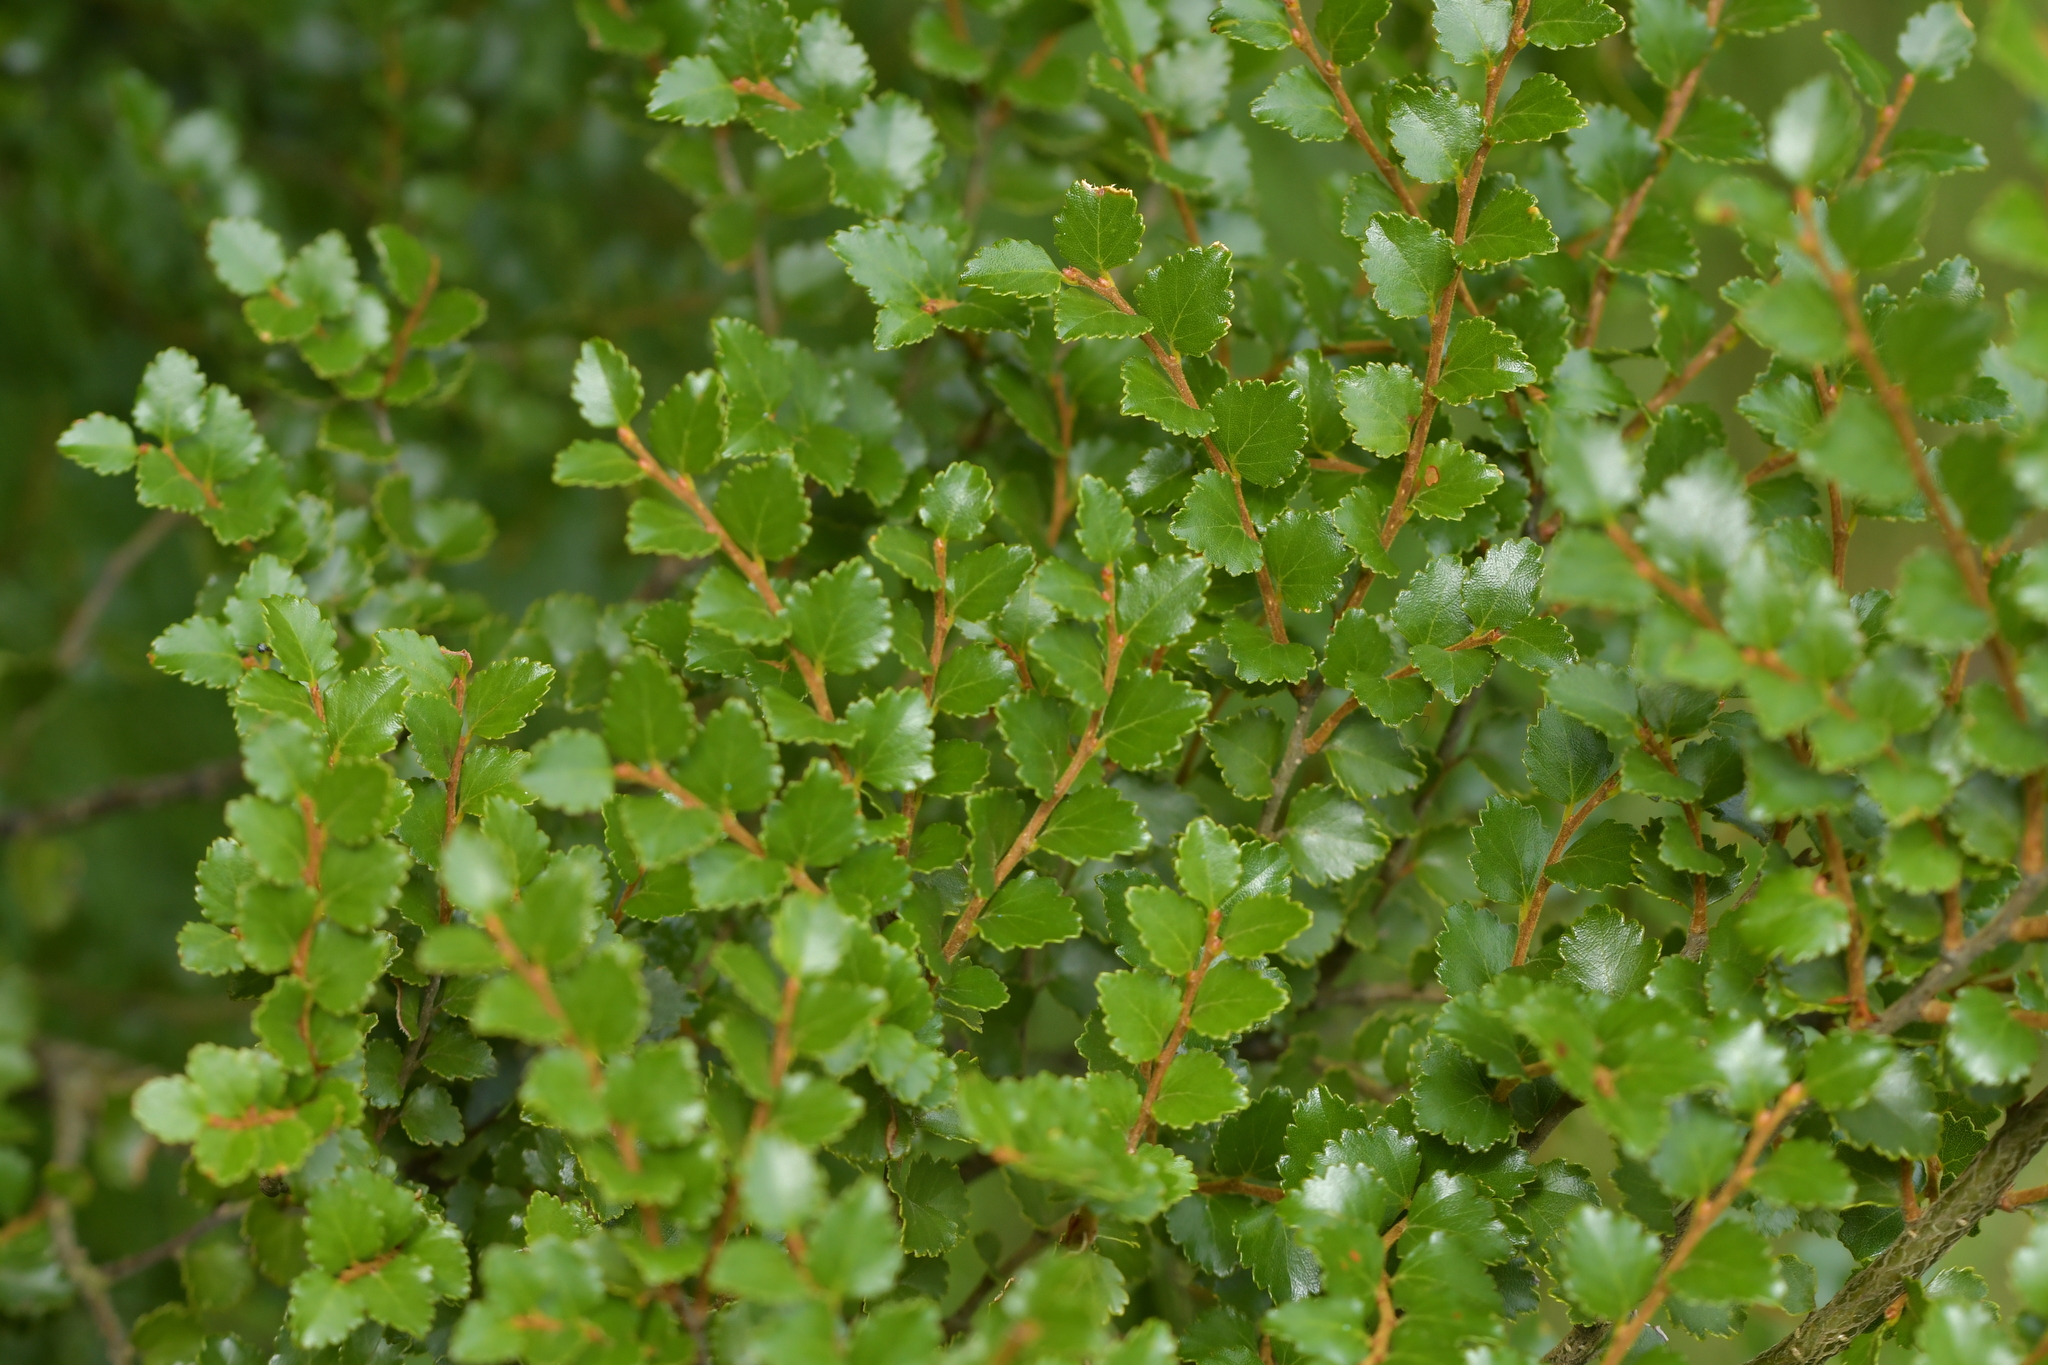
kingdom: Plantae
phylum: Tracheophyta
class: Magnoliopsida
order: Fagales
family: Nothofagaceae
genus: Nothofagus
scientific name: Nothofagus menziesii
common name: Silver beech
